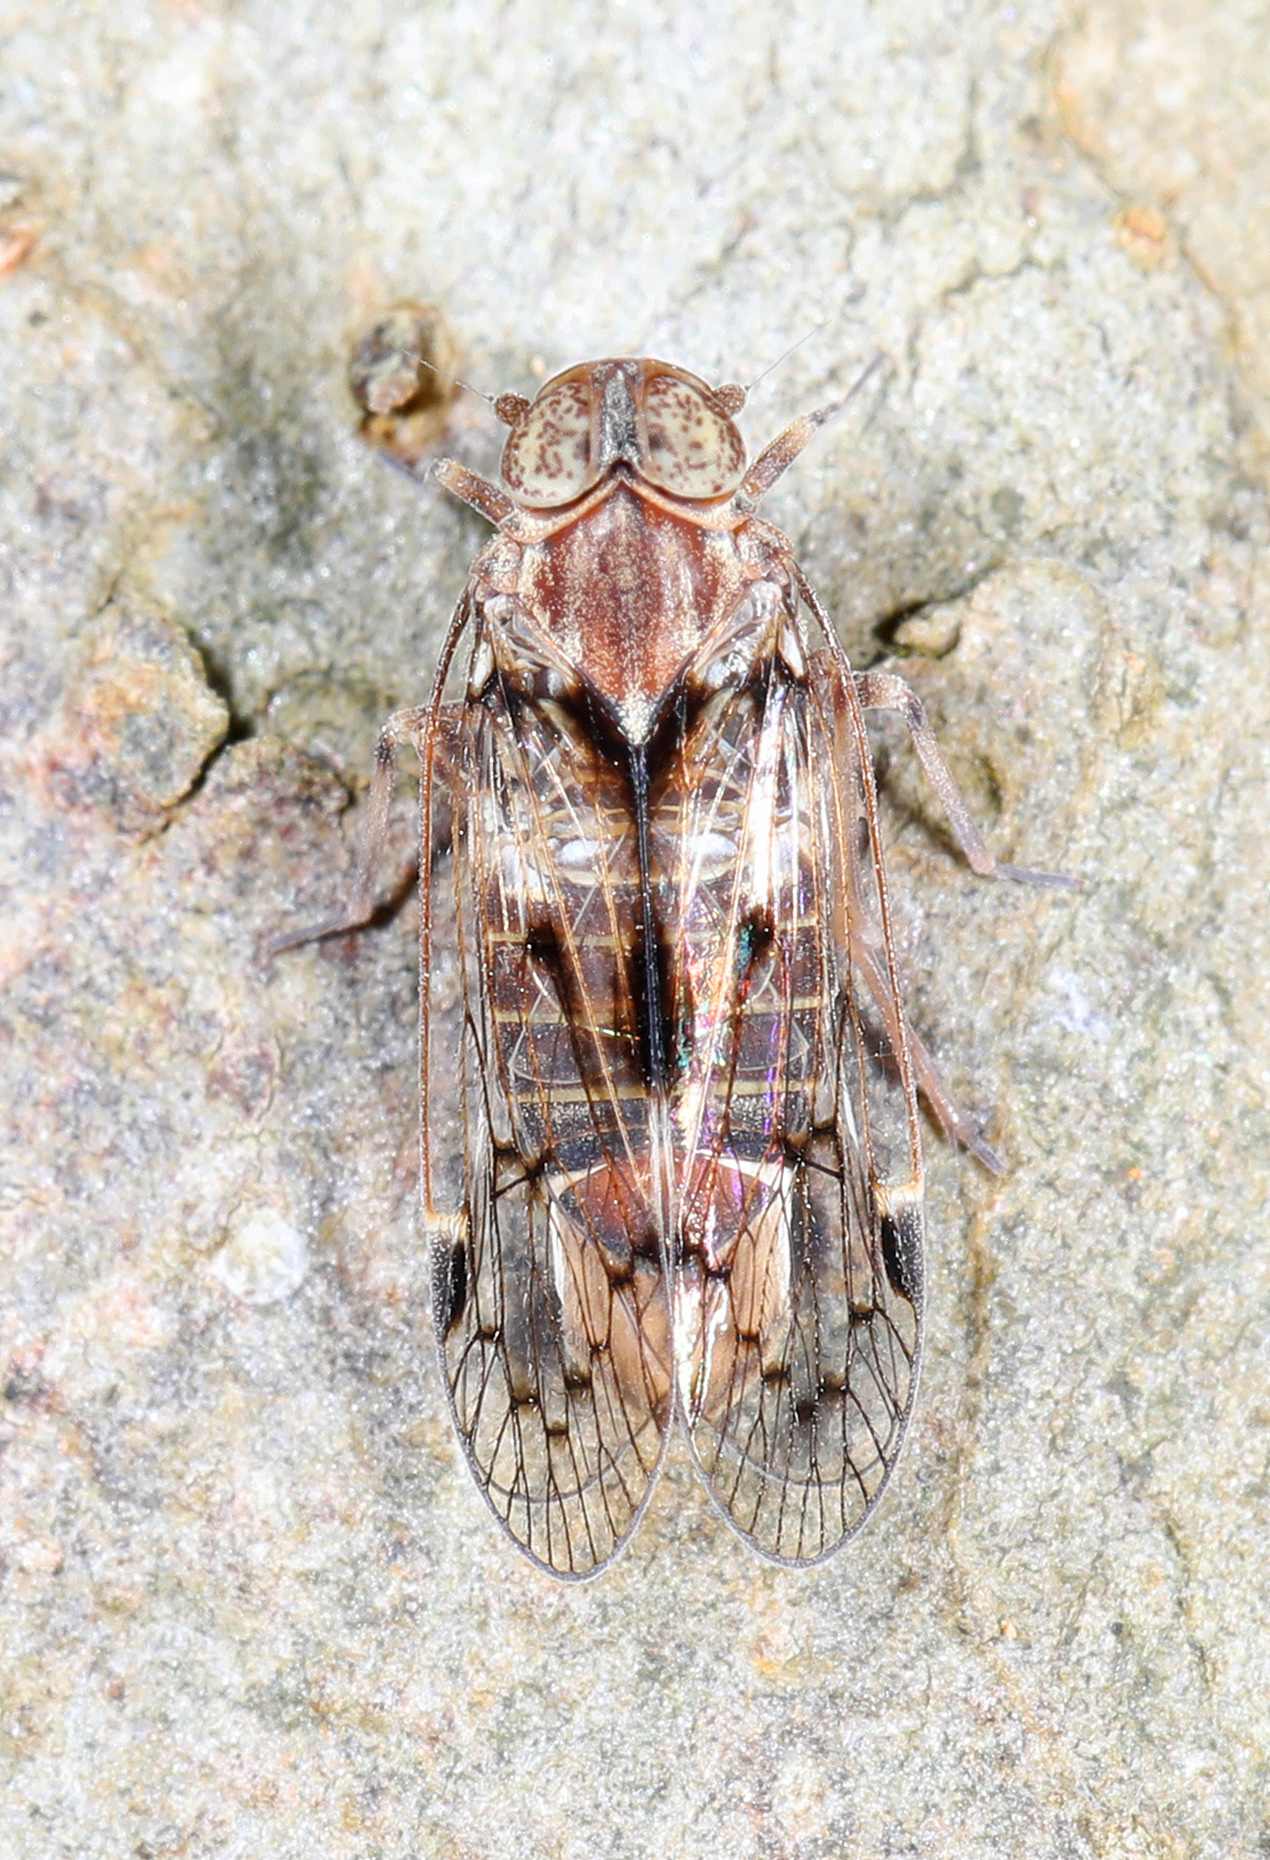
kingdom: Animalia
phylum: Arthropoda
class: Insecta
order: Hemiptera
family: Cixiidae
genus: Melanoliarus
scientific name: Melanoliarus slossonae
